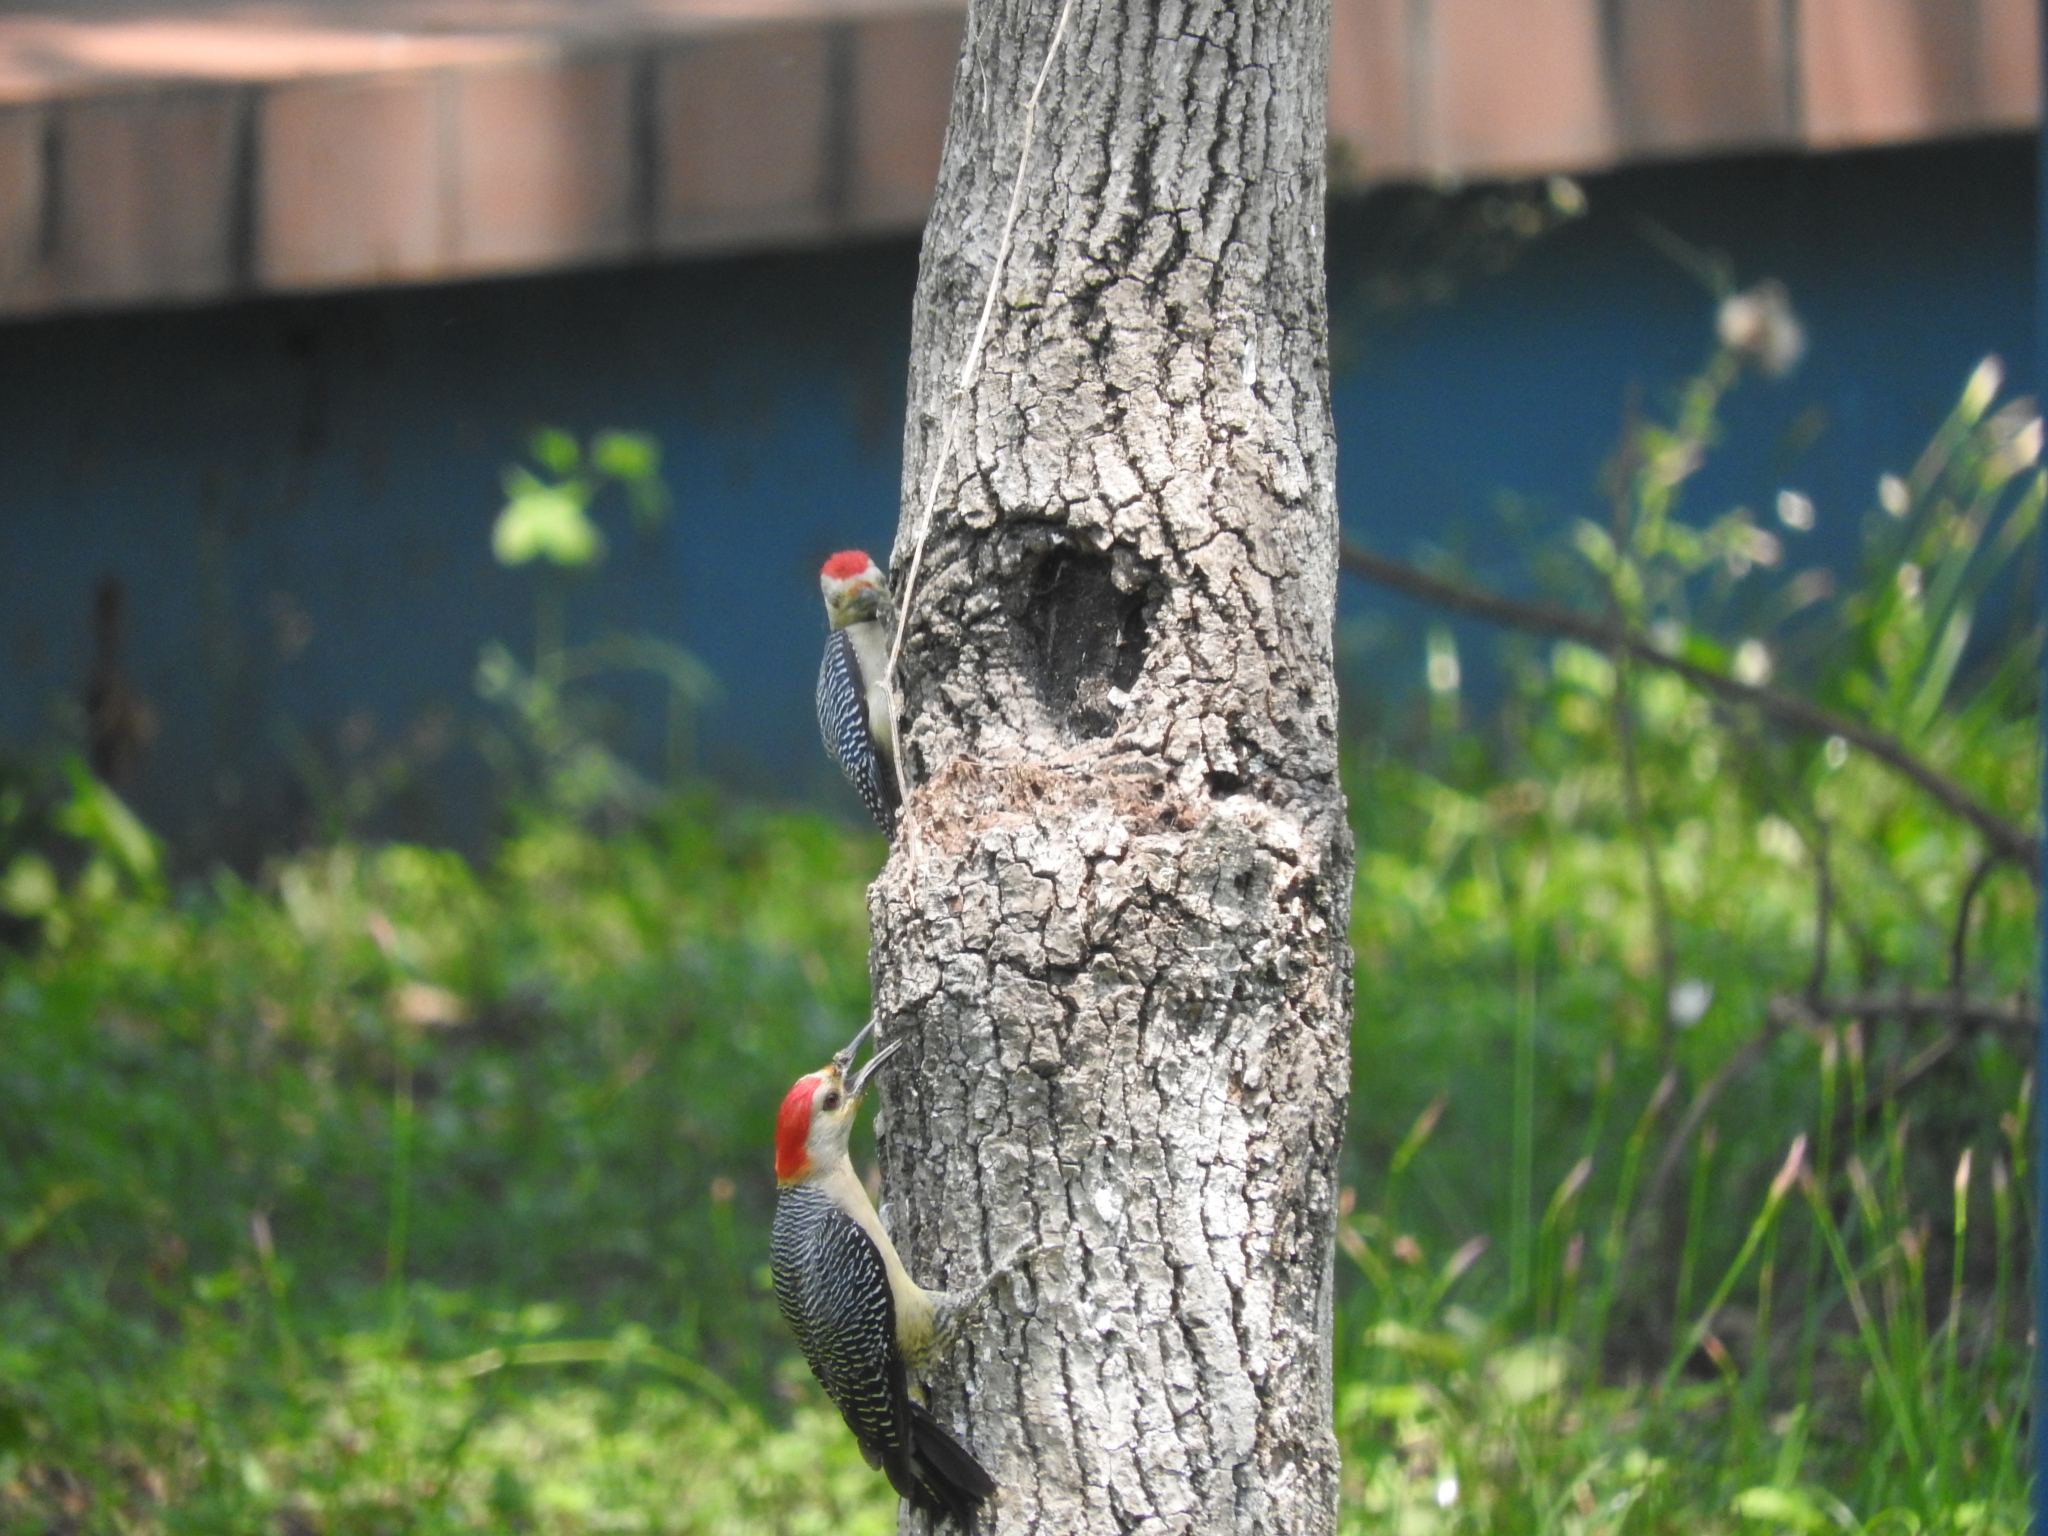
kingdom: Animalia
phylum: Chordata
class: Aves
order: Piciformes
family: Picidae
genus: Melanerpes
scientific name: Melanerpes aurifrons
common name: Golden-fronted woodpecker
